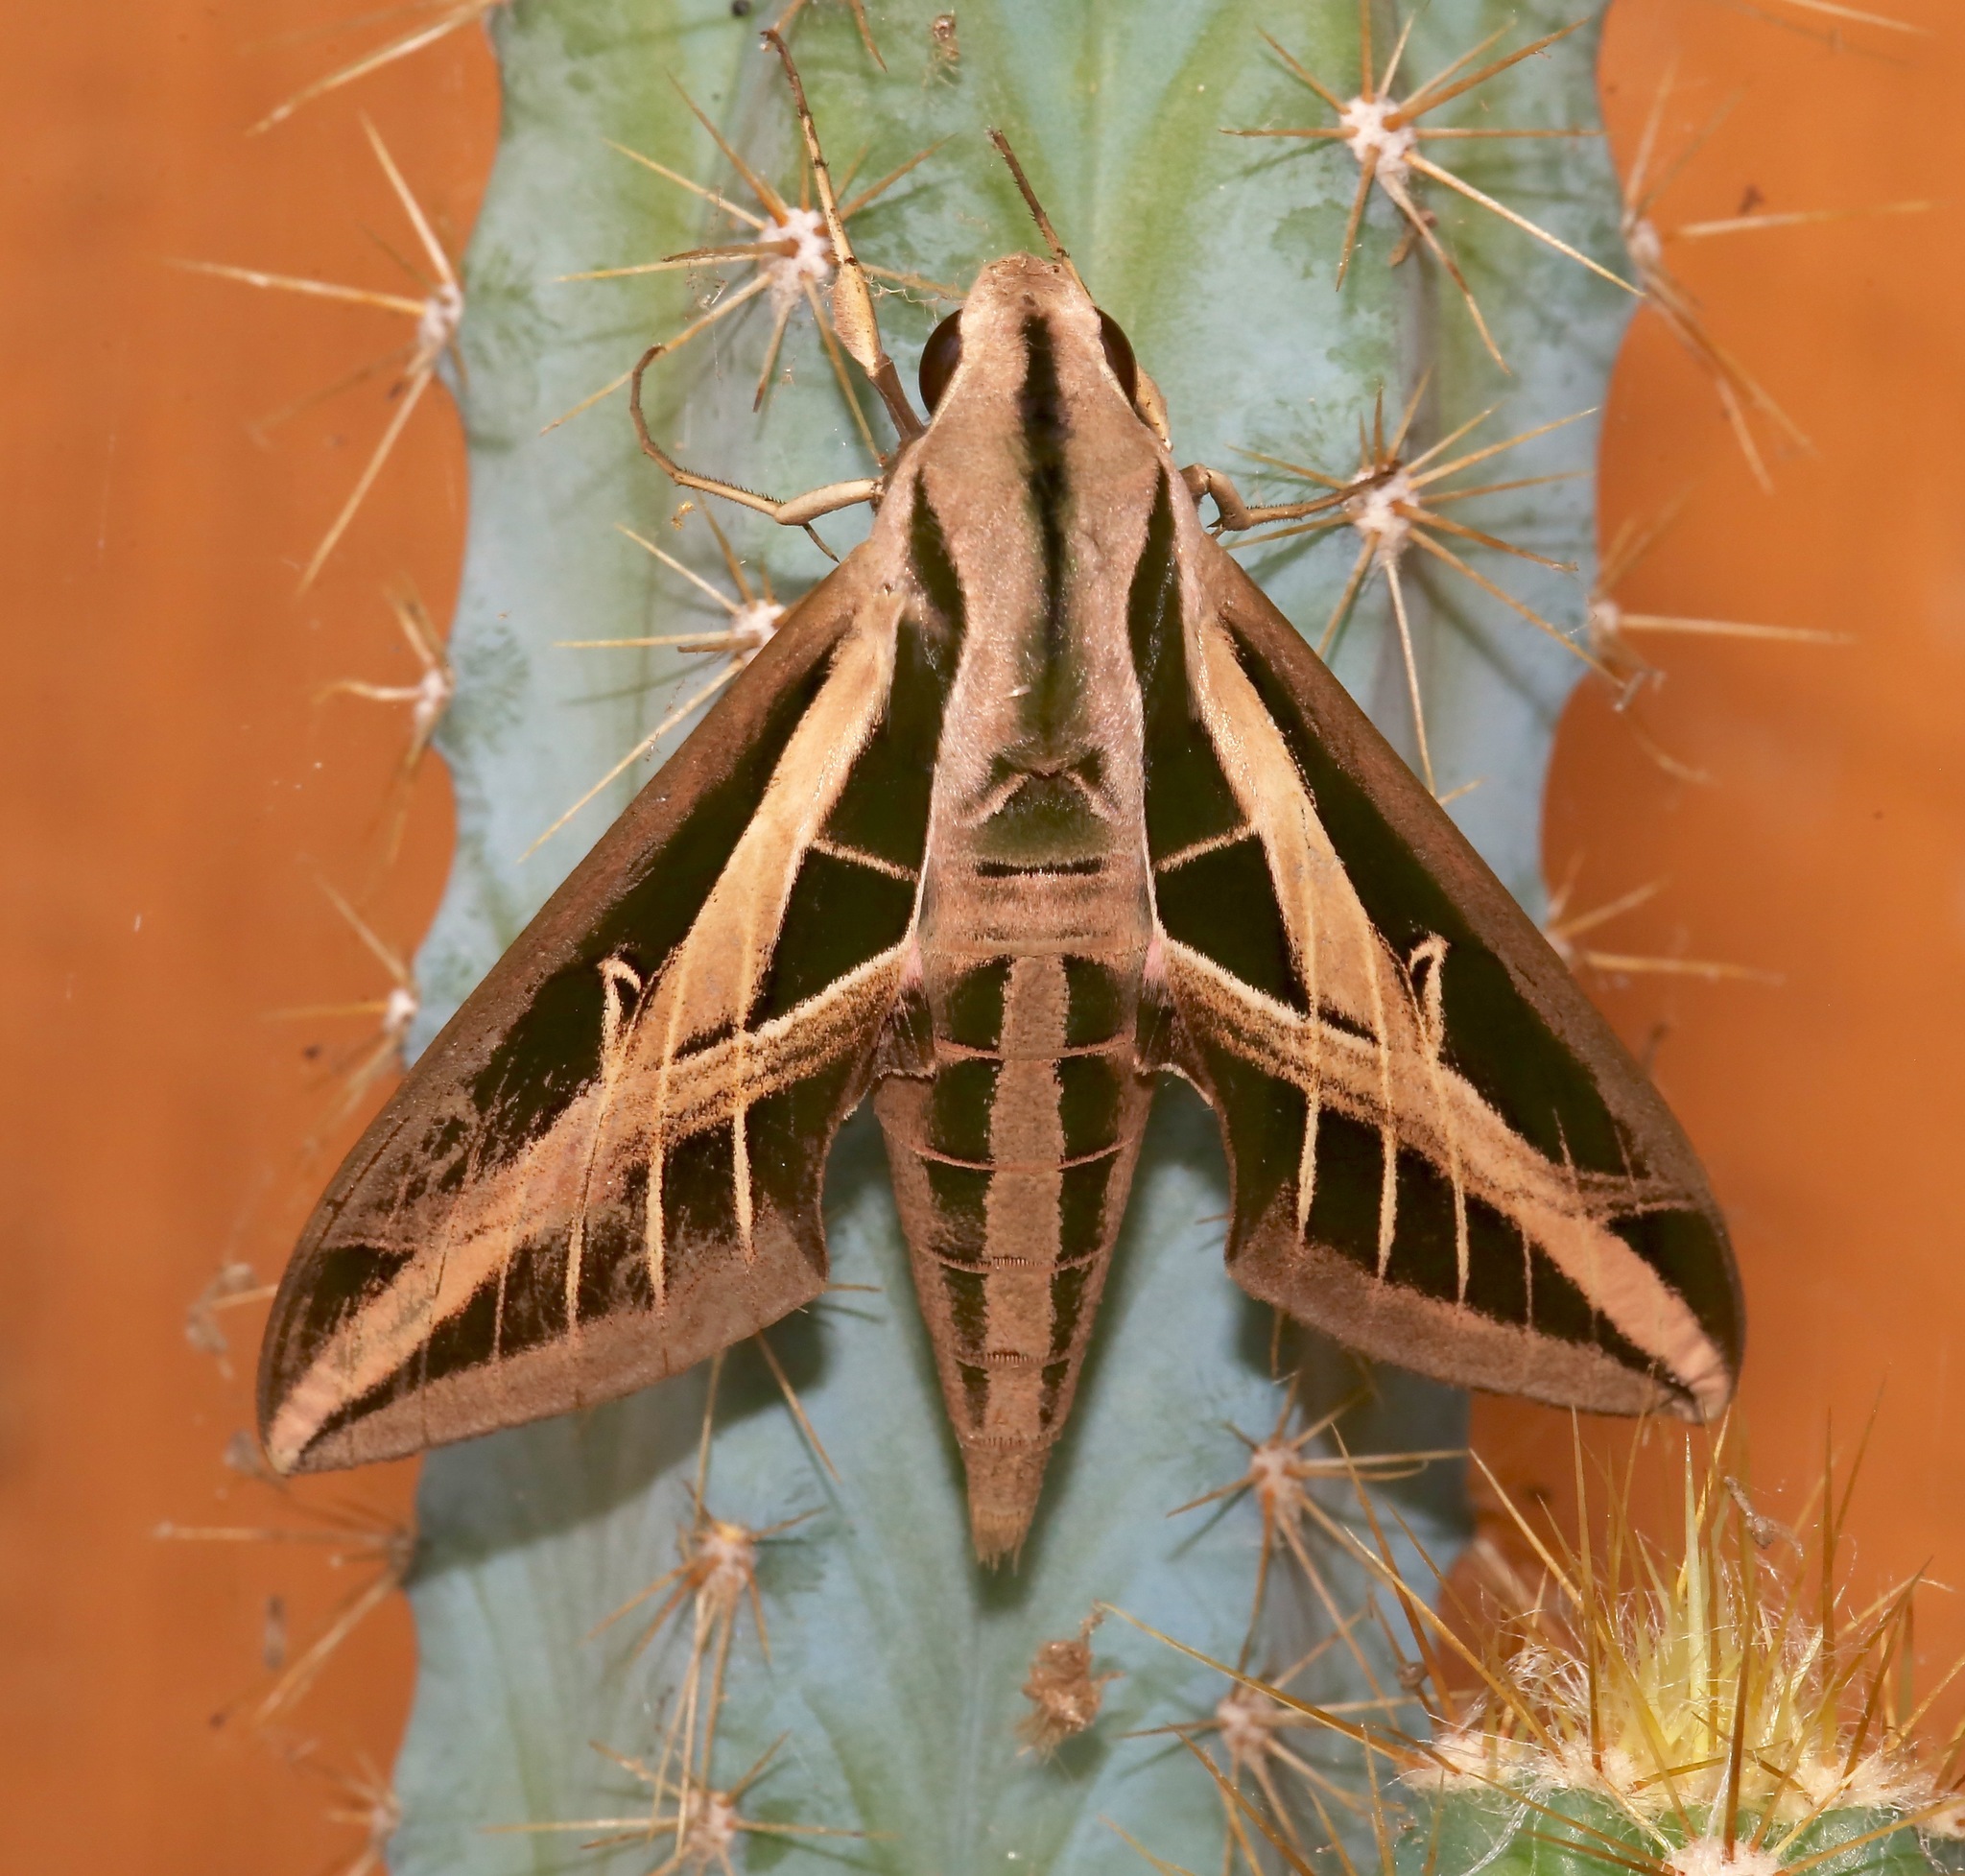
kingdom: Animalia
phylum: Arthropoda
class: Insecta
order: Lepidoptera
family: Sphingidae
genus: Eumorpha
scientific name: Eumorpha fasciatus
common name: Banded sphinx
